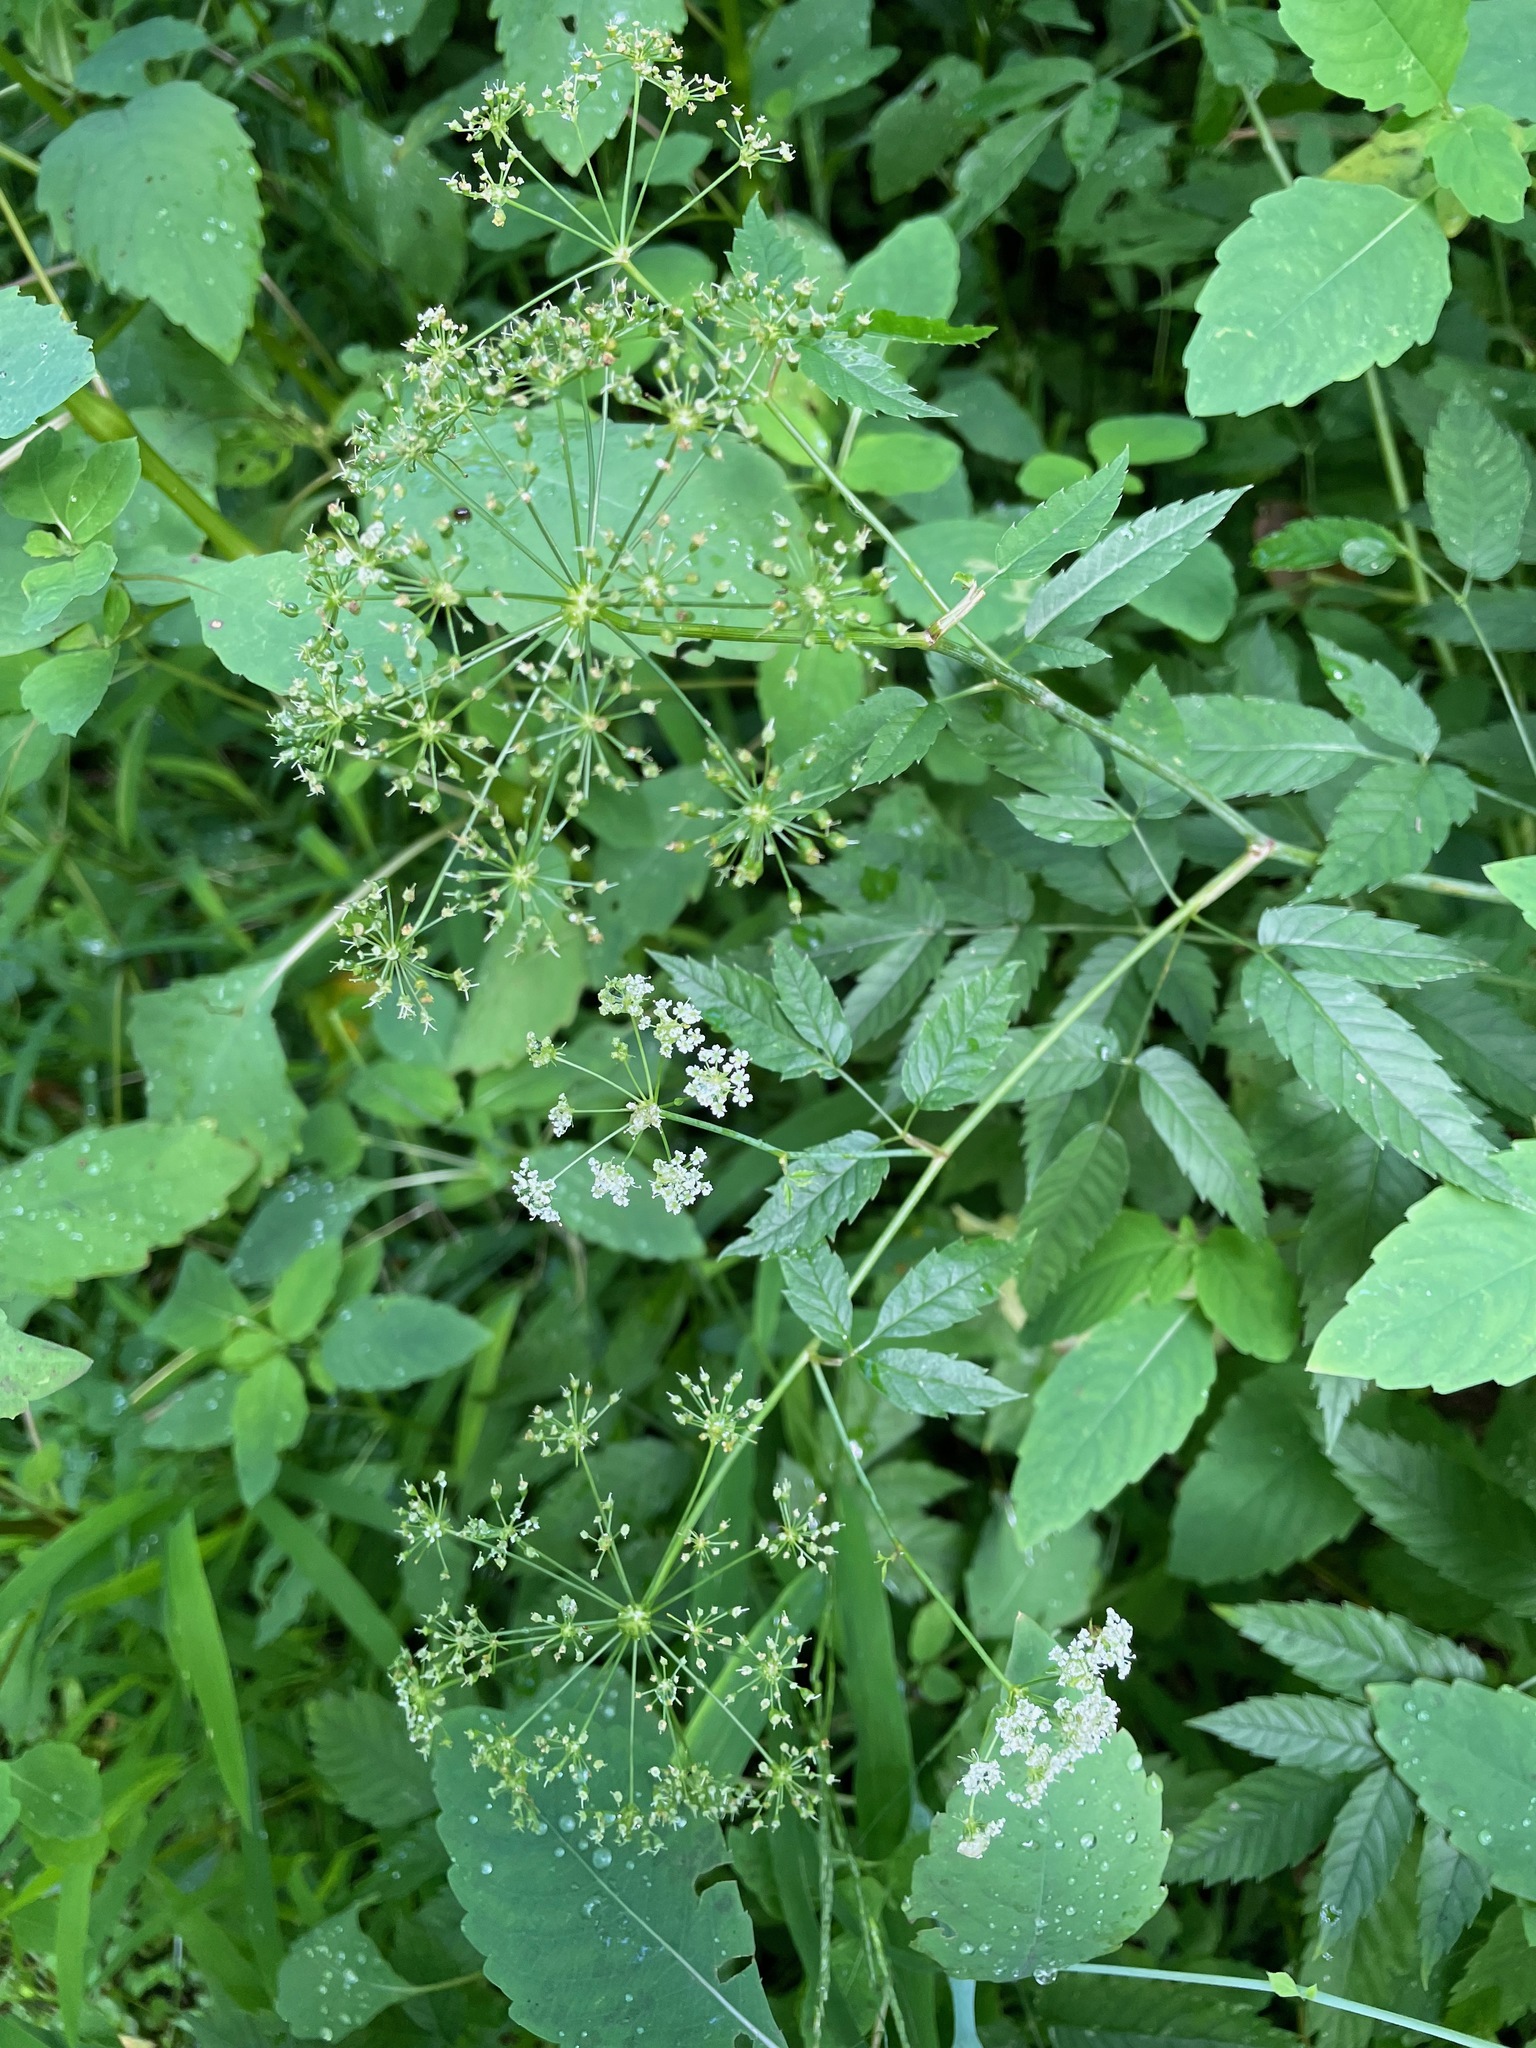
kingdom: Plantae
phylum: Tracheophyta
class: Magnoliopsida
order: Apiales
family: Apiaceae
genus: Cicuta
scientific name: Cicuta maculata
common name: Spotted cowbane
